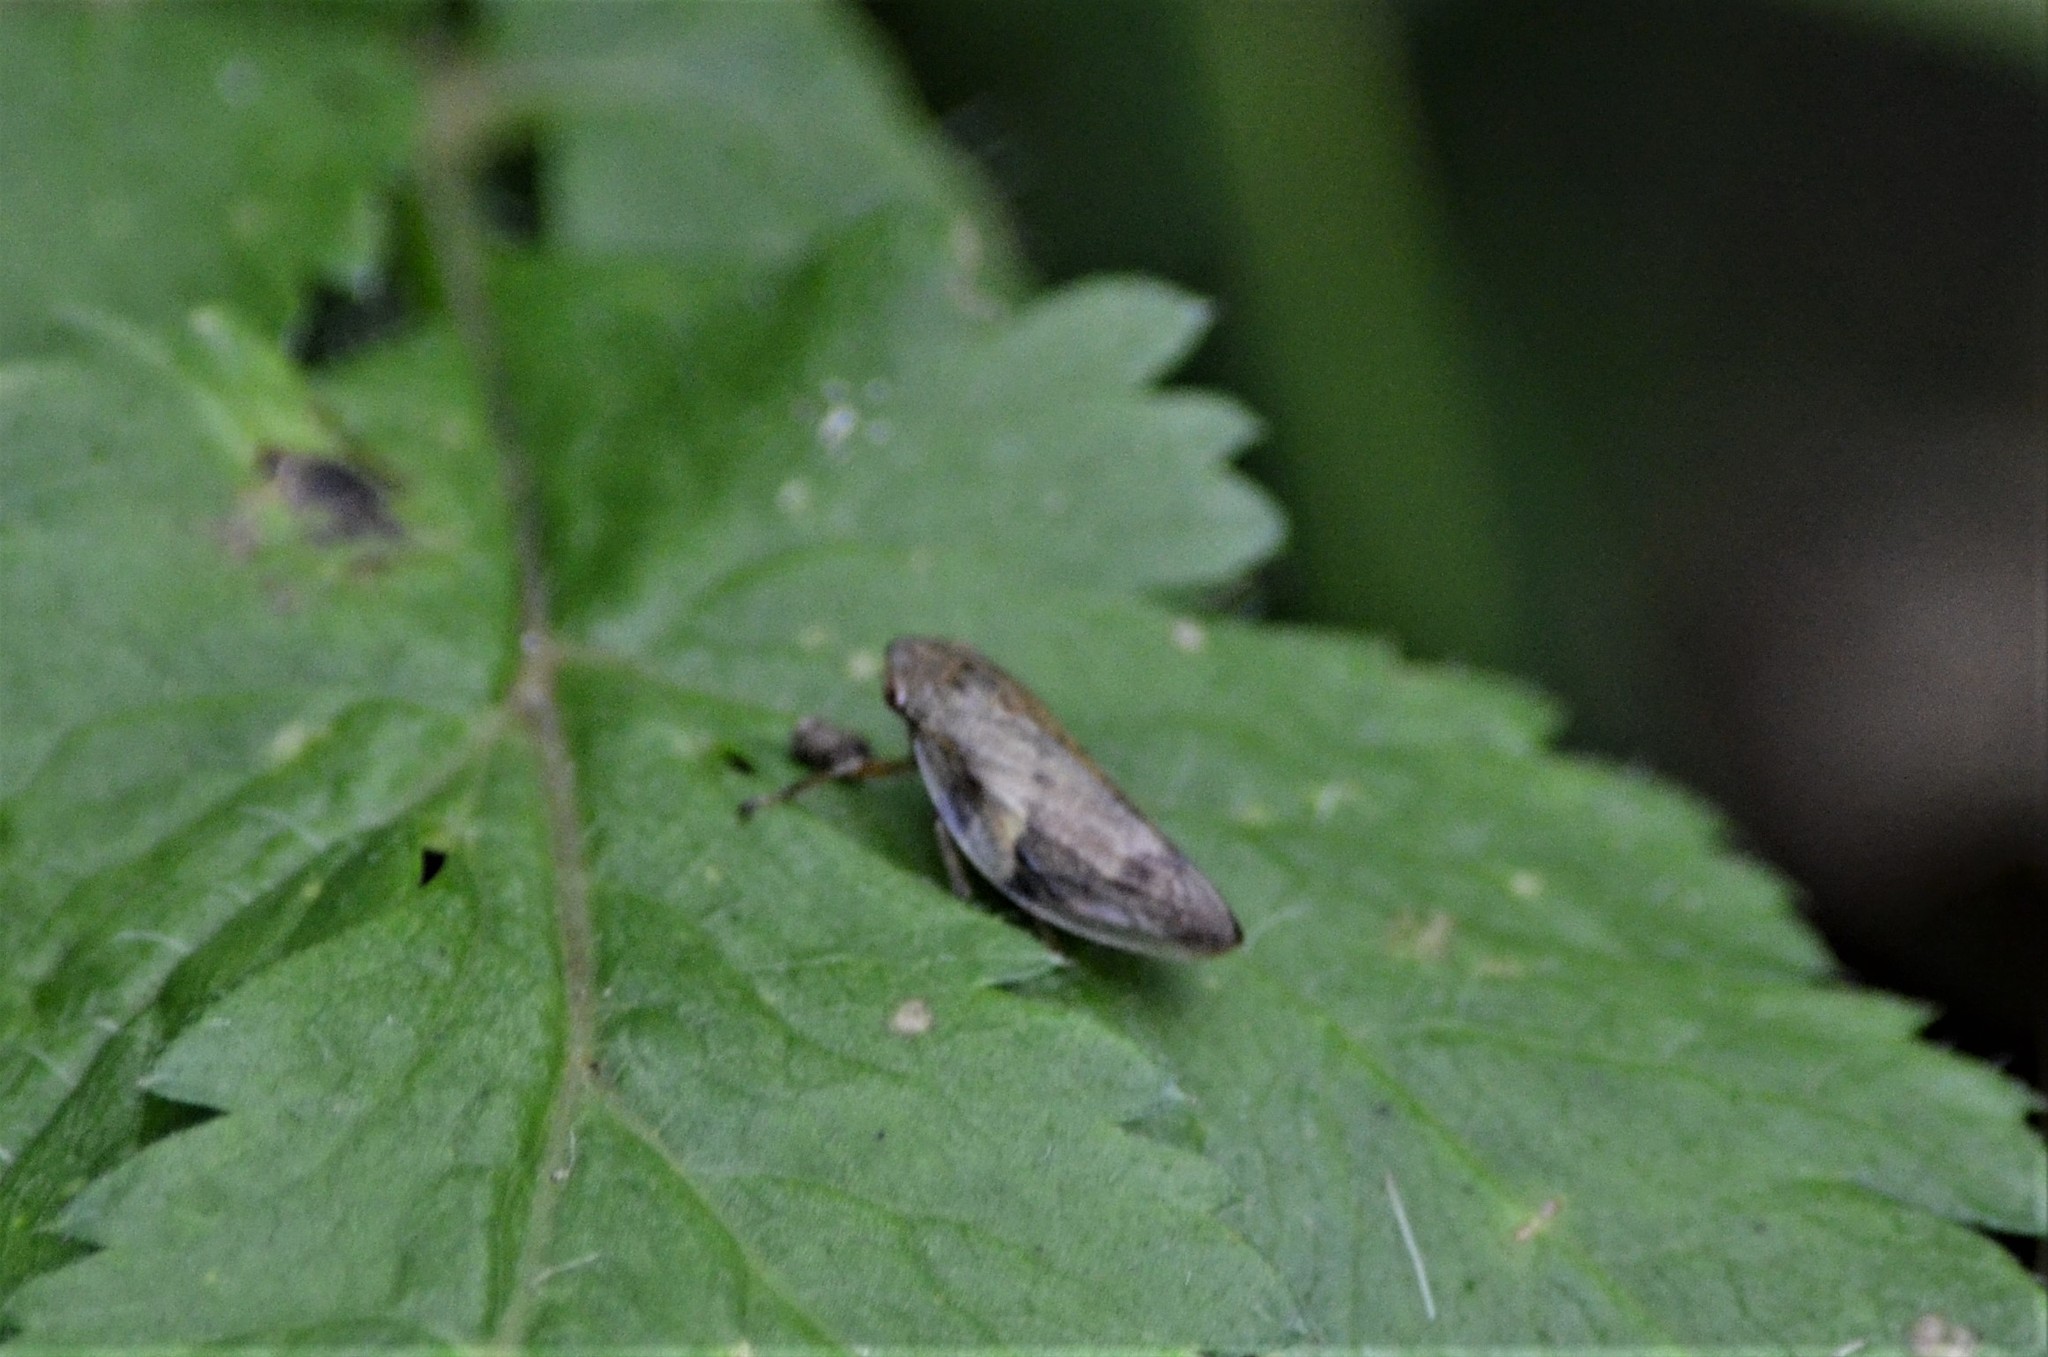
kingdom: Animalia
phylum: Arthropoda
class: Insecta
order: Hemiptera
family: Aphrophoridae
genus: Aphrophora
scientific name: Aphrophora alni
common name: European alder spittlebug
